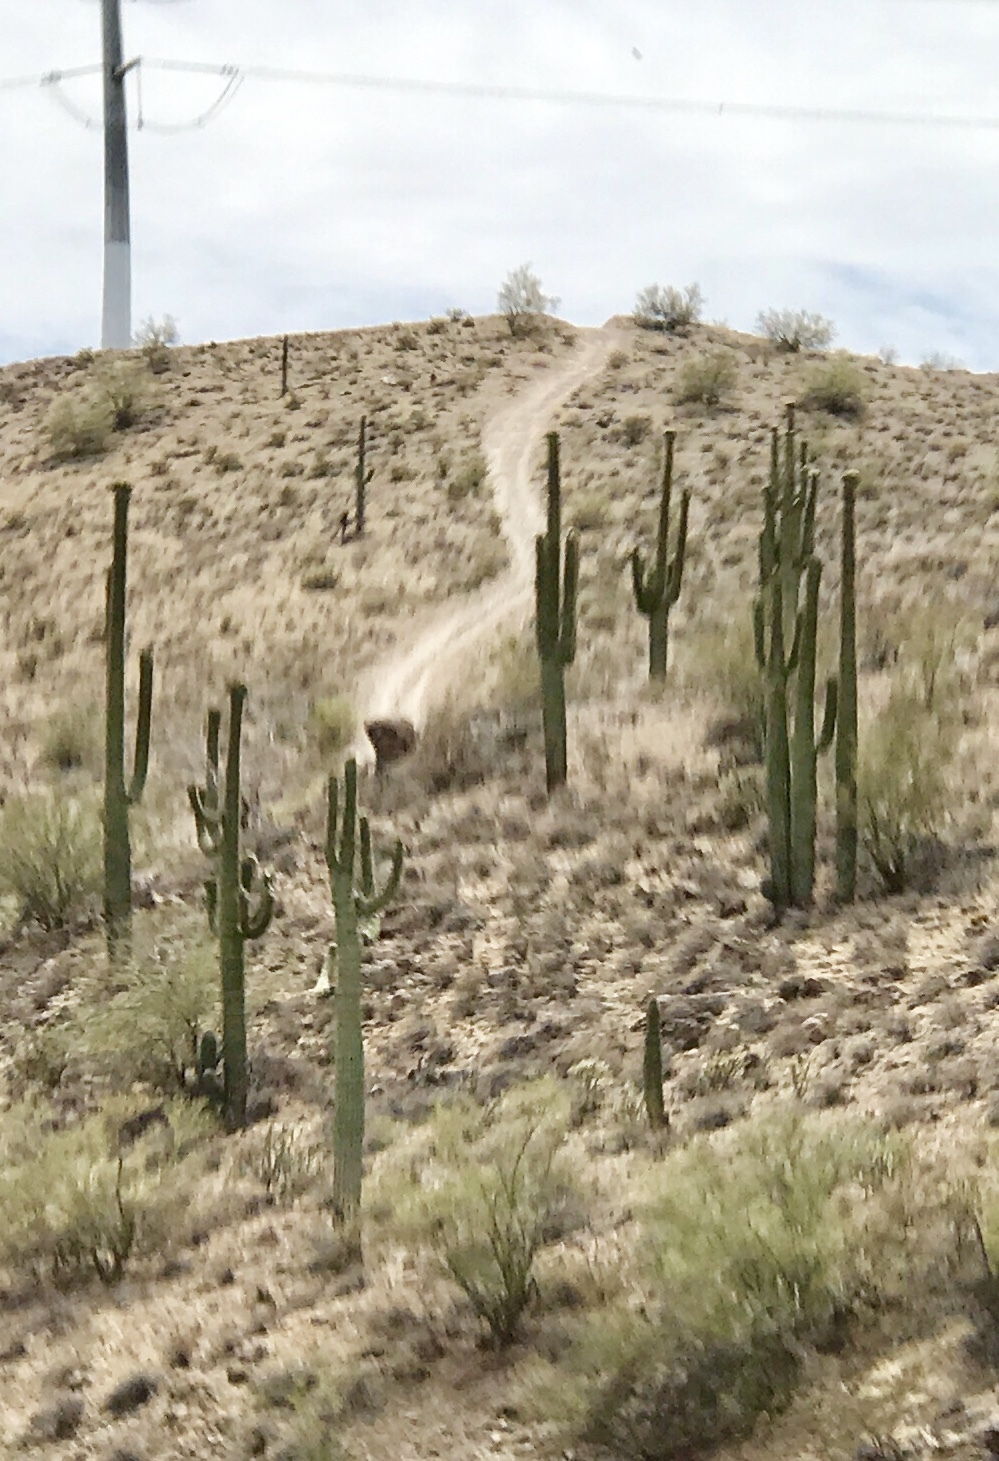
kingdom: Plantae
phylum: Tracheophyta
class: Magnoliopsida
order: Caryophyllales
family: Cactaceae
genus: Carnegiea
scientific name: Carnegiea gigantea
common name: Saguaro
